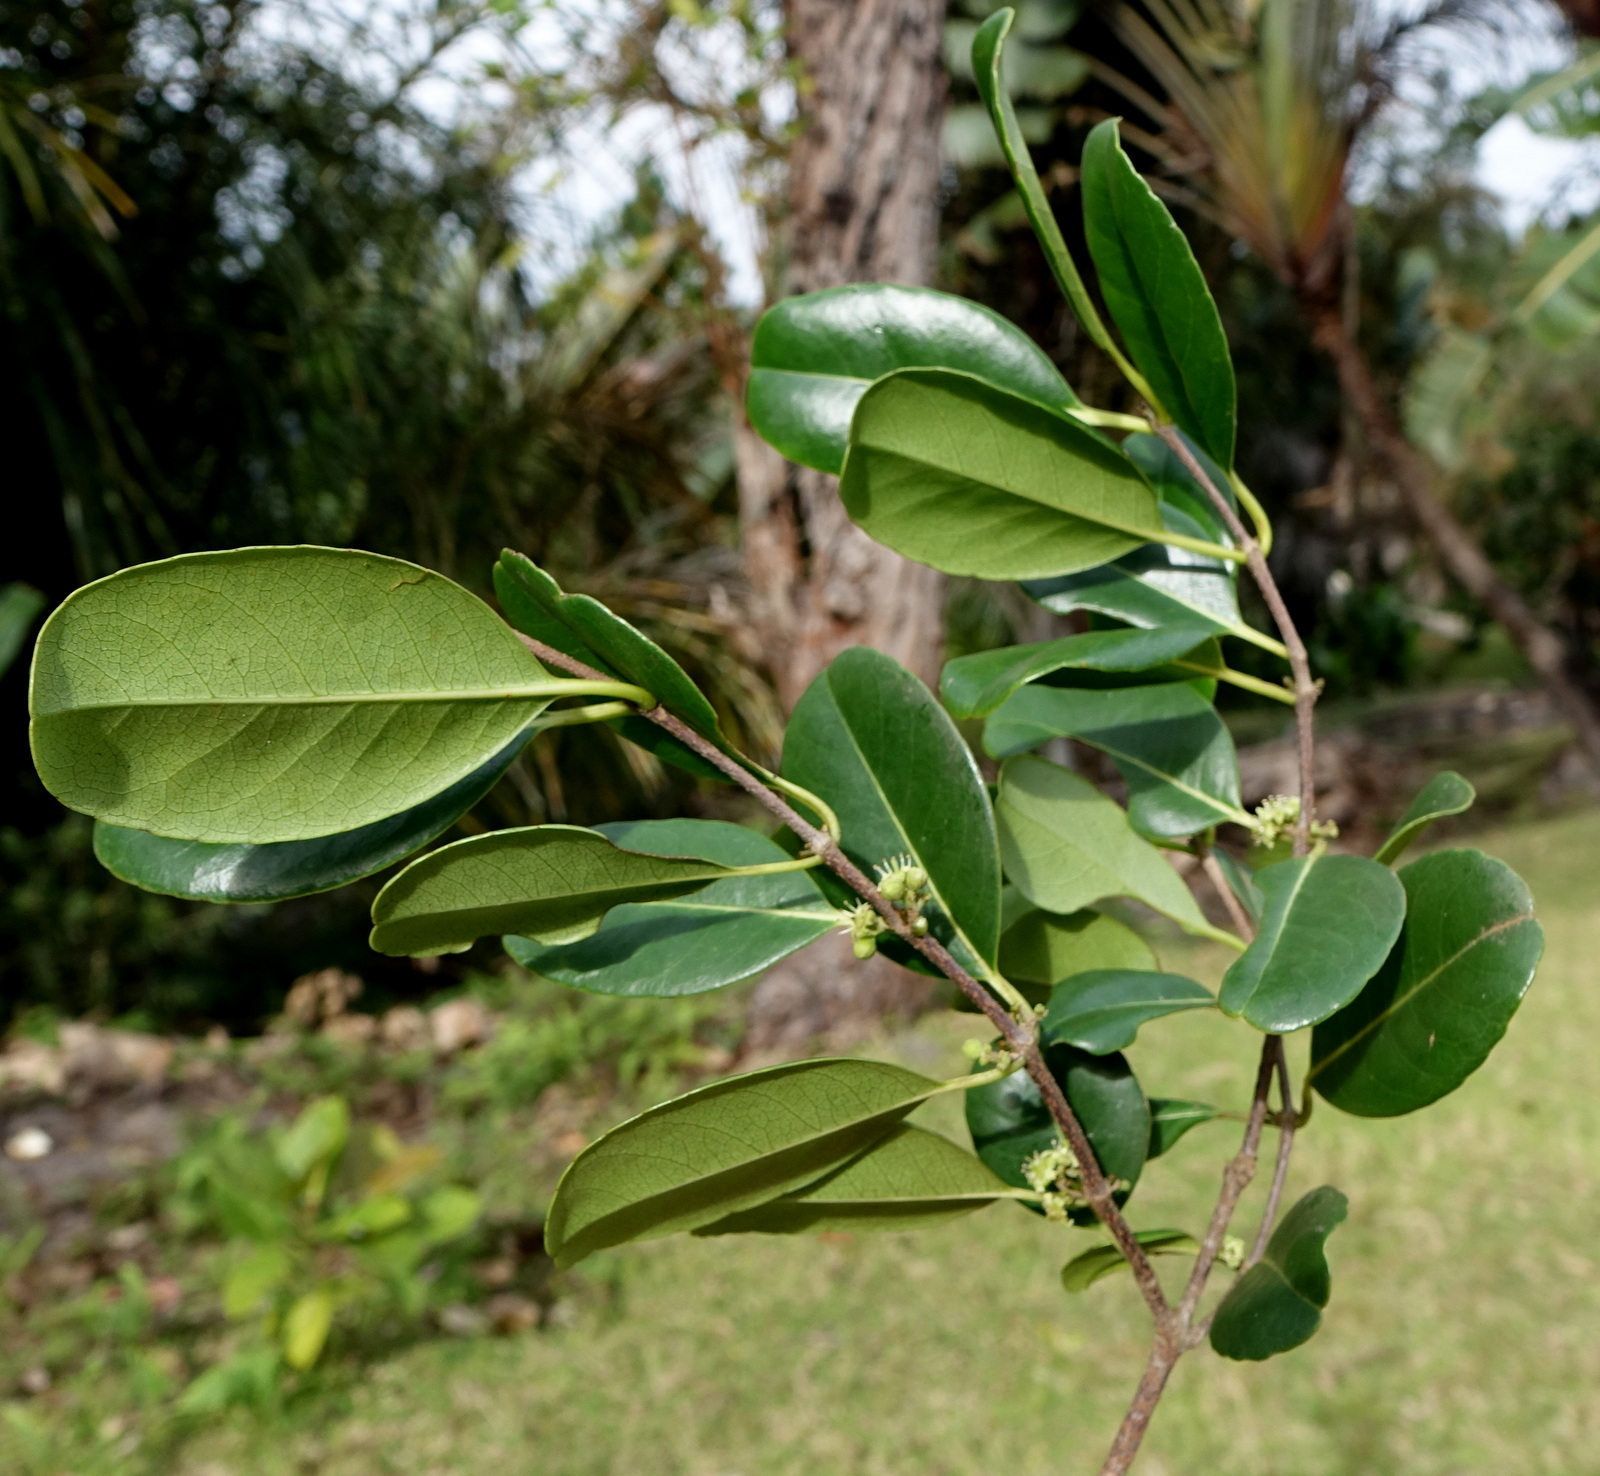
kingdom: Plantae
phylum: Tracheophyta
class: Magnoliopsida
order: Malpighiales
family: Rhizophoraceae
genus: Cassipourea
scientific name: Cassipourea gummiflua
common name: Large-leaved onionwood
